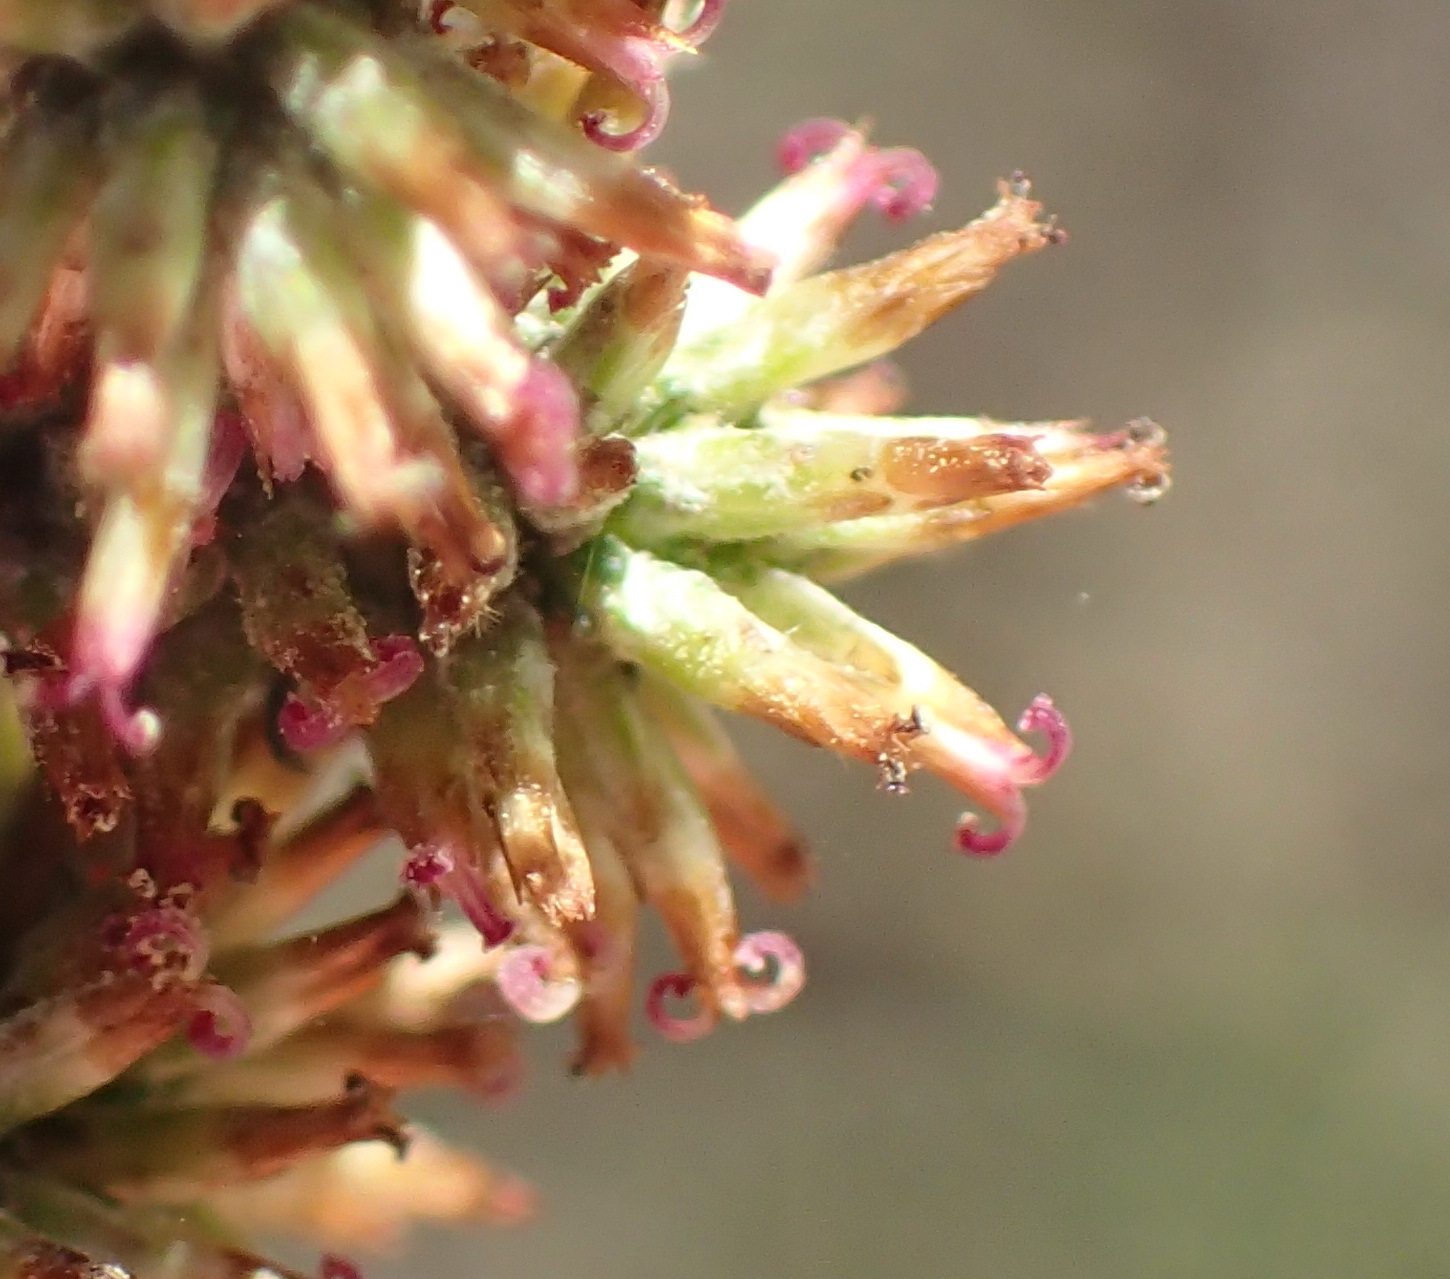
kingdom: Plantae
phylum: Tracheophyta
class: Magnoliopsida
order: Asterales
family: Asteraceae
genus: Seriphium
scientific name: Seriphium plumosum
